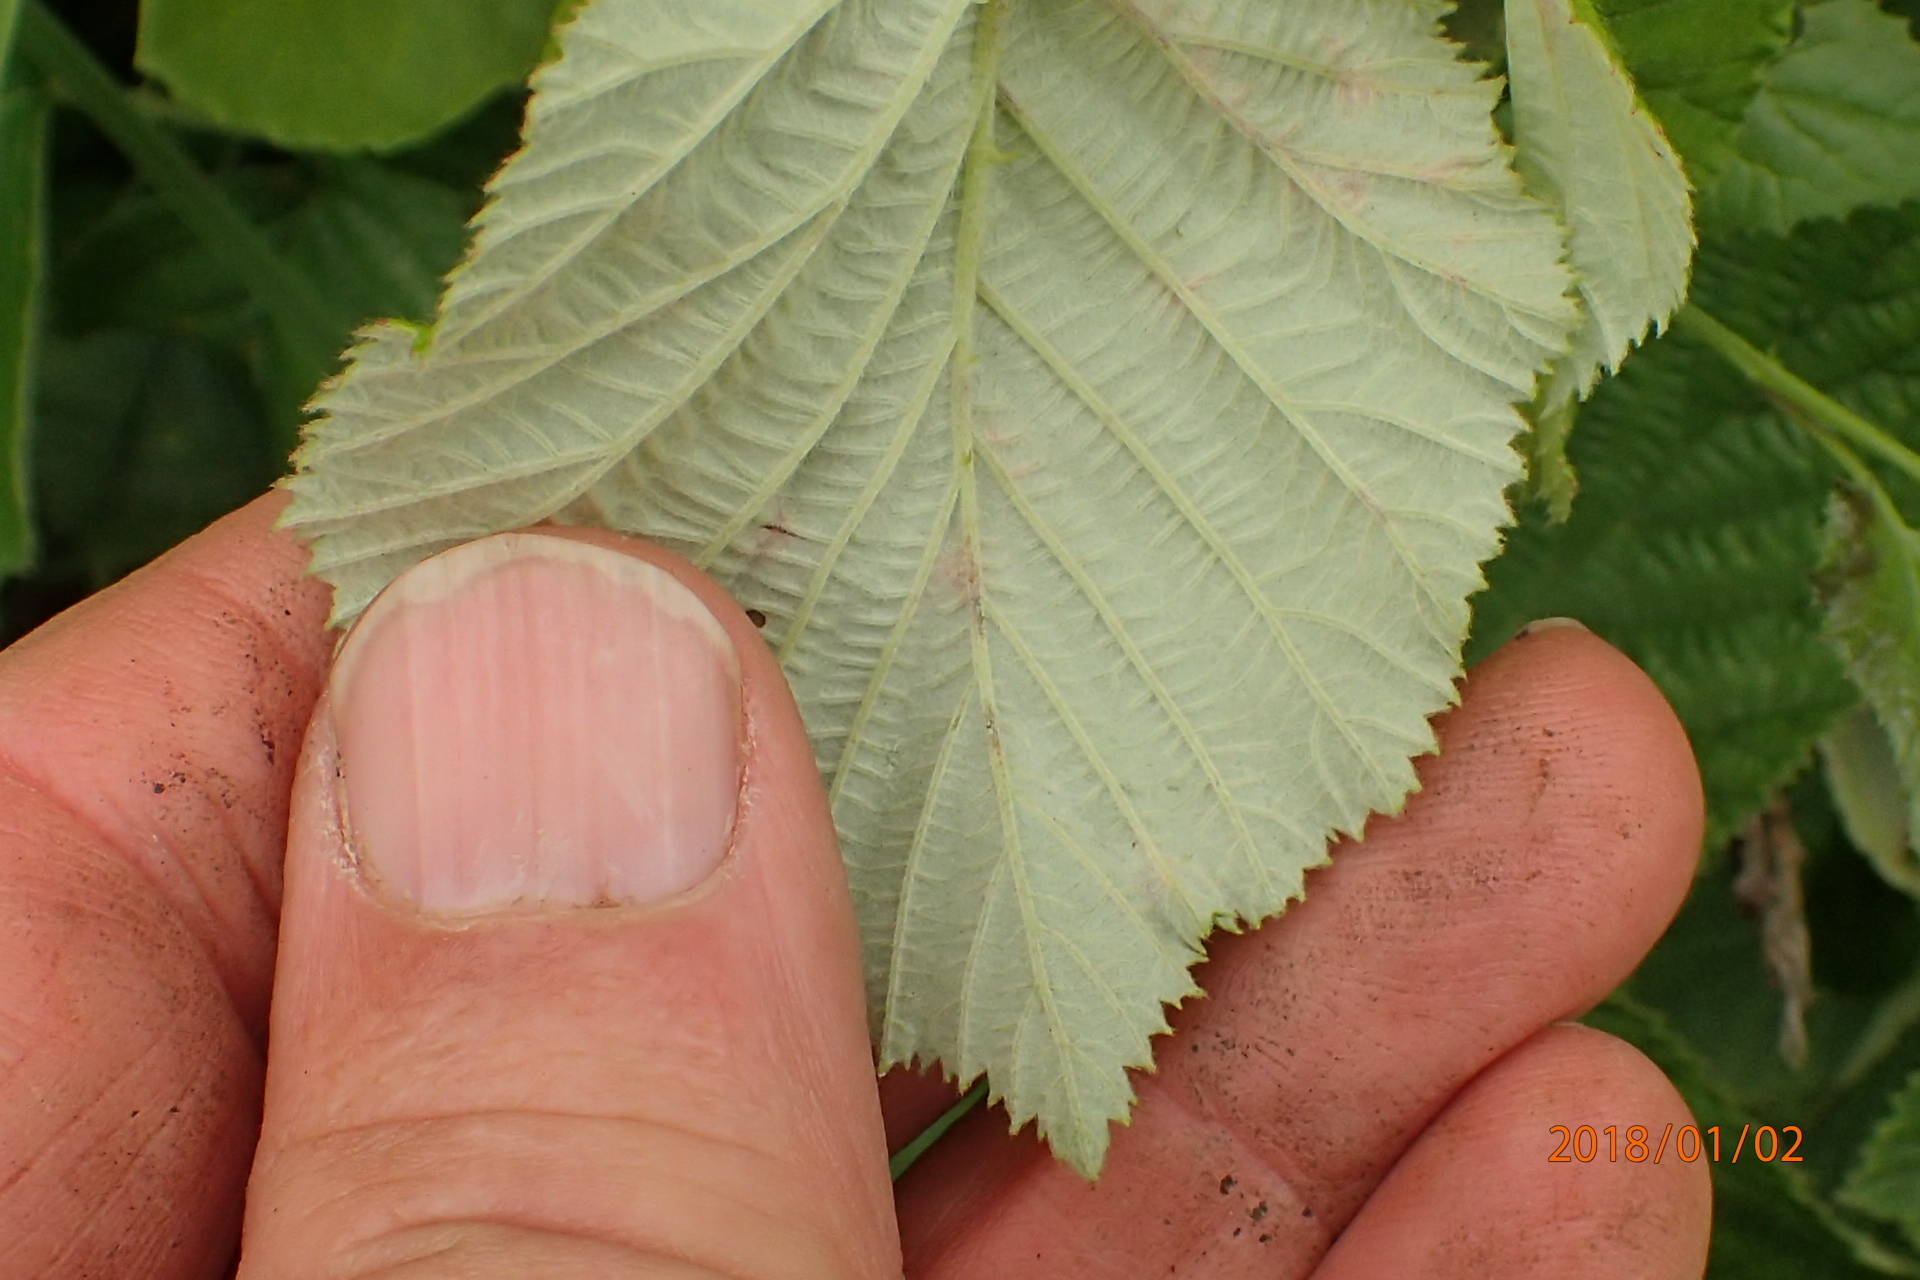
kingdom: Plantae
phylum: Tracheophyta
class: Magnoliopsida
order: Rosales
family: Rosaceae
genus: Rubus
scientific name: Rubus rigidus
